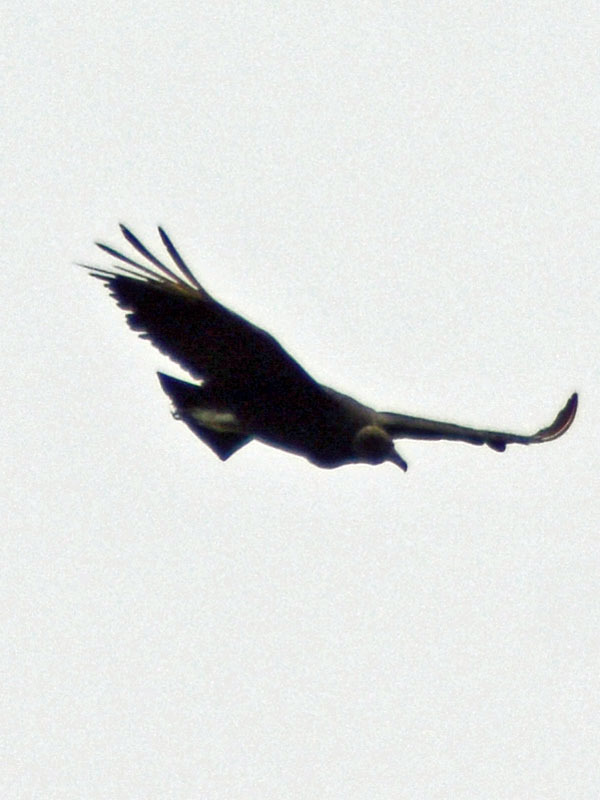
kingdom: Animalia
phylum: Chordata
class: Aves
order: Accipitriformes
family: Cathartidae
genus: Coragyps
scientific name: Coragyps atratus
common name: Black vulture
